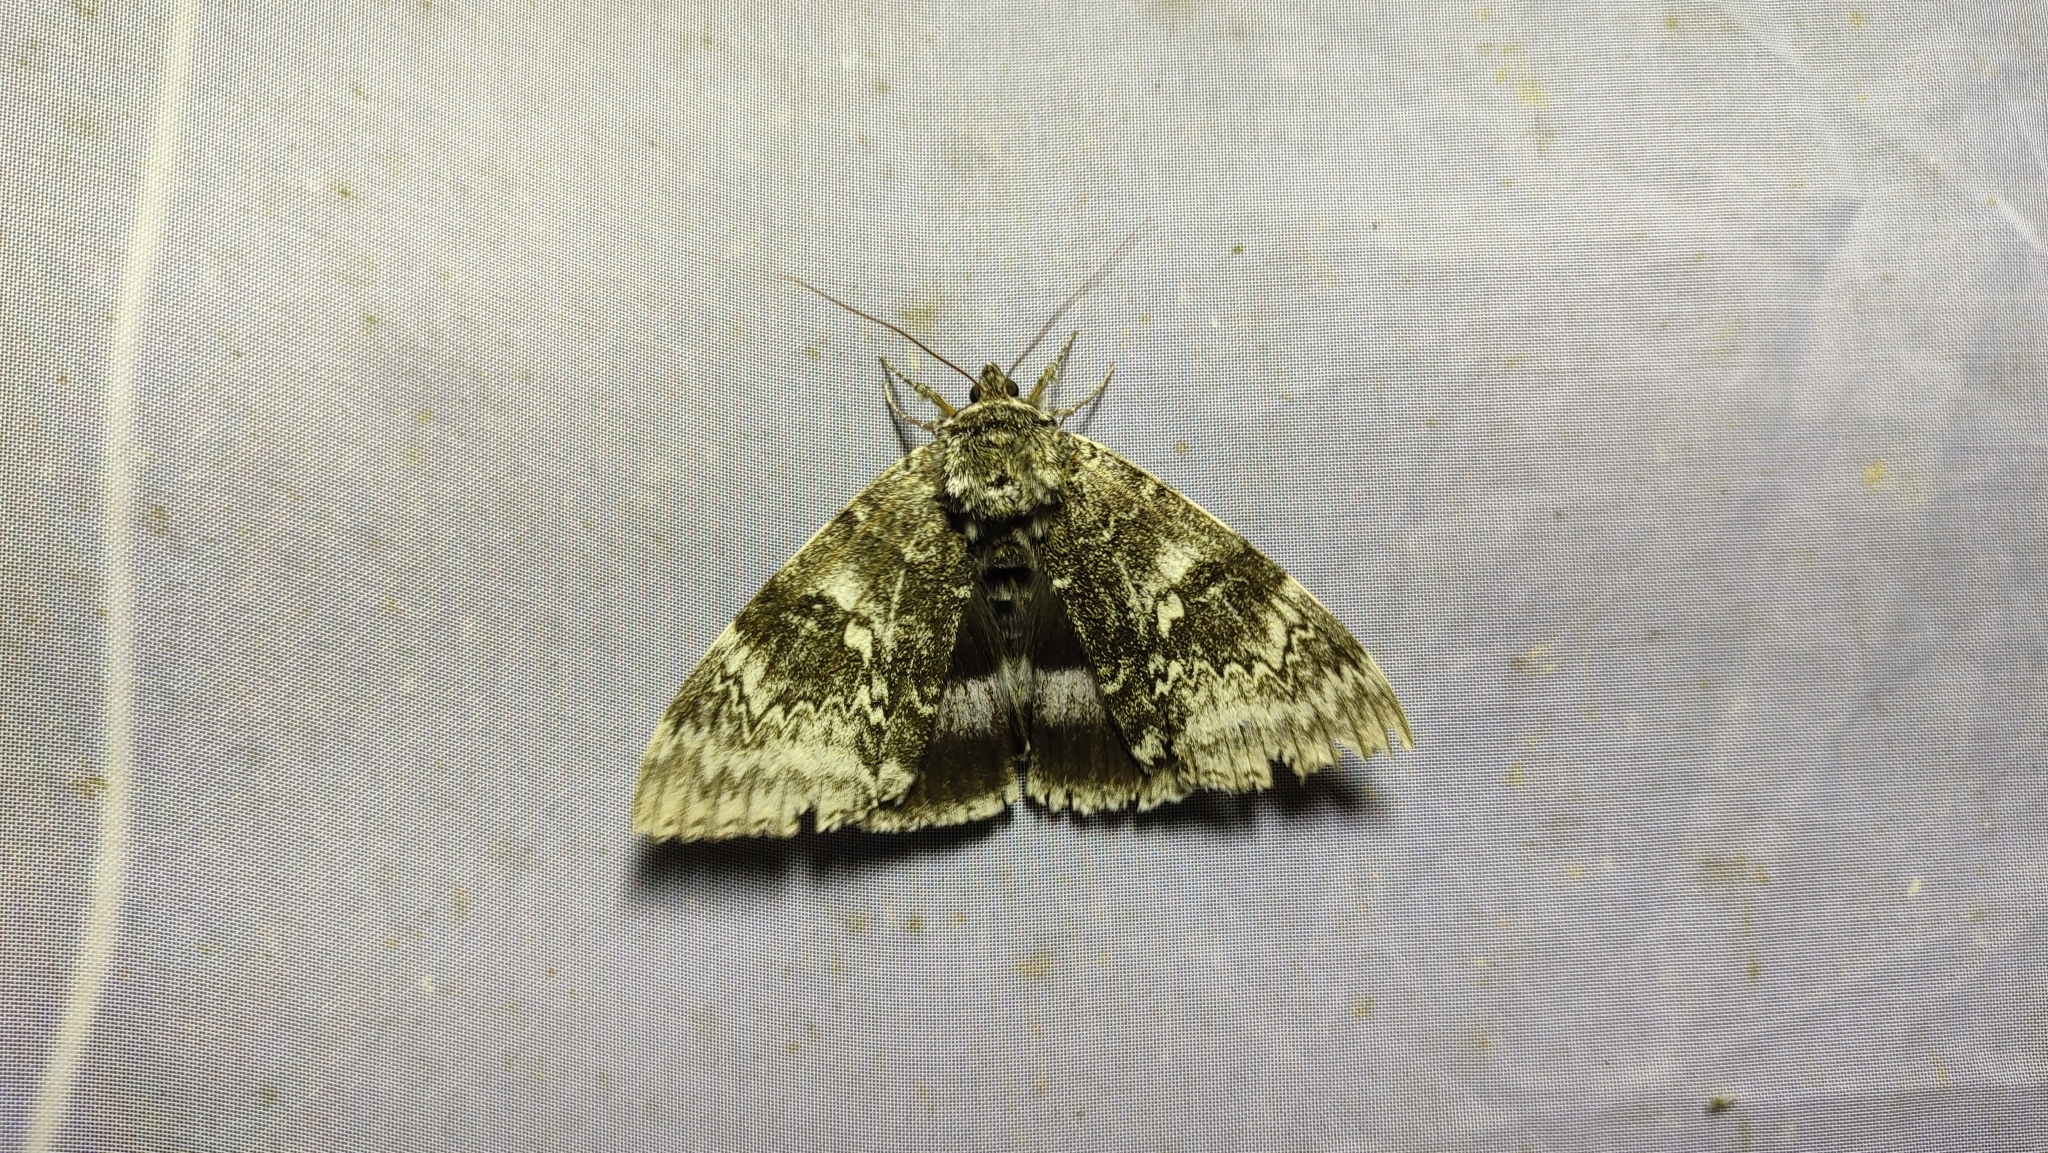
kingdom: Animalia
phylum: Arthropoda
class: Insecta
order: Lepidoptera
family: Erebidae
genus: Catocala
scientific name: Catocala fraxini
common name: Clifden nonpareil
